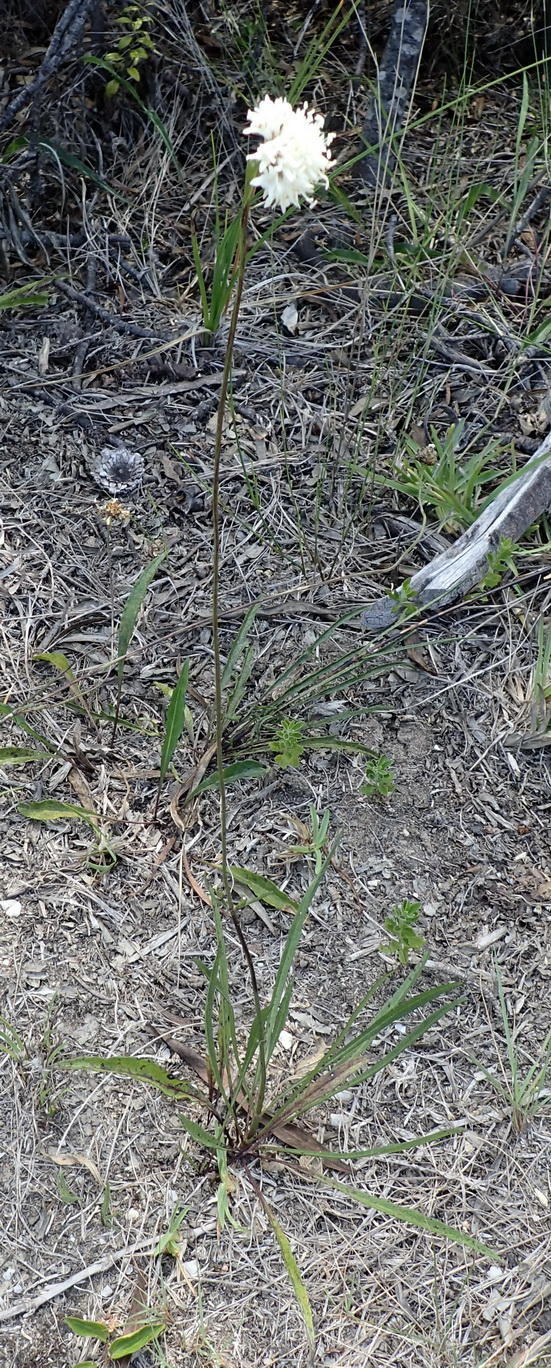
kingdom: Plantae
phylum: Tracheophyta
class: Magnoliopsida
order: Dipsacales
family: Caprifoliaceae
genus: Cephalaria
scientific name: Cephalaria humilis
